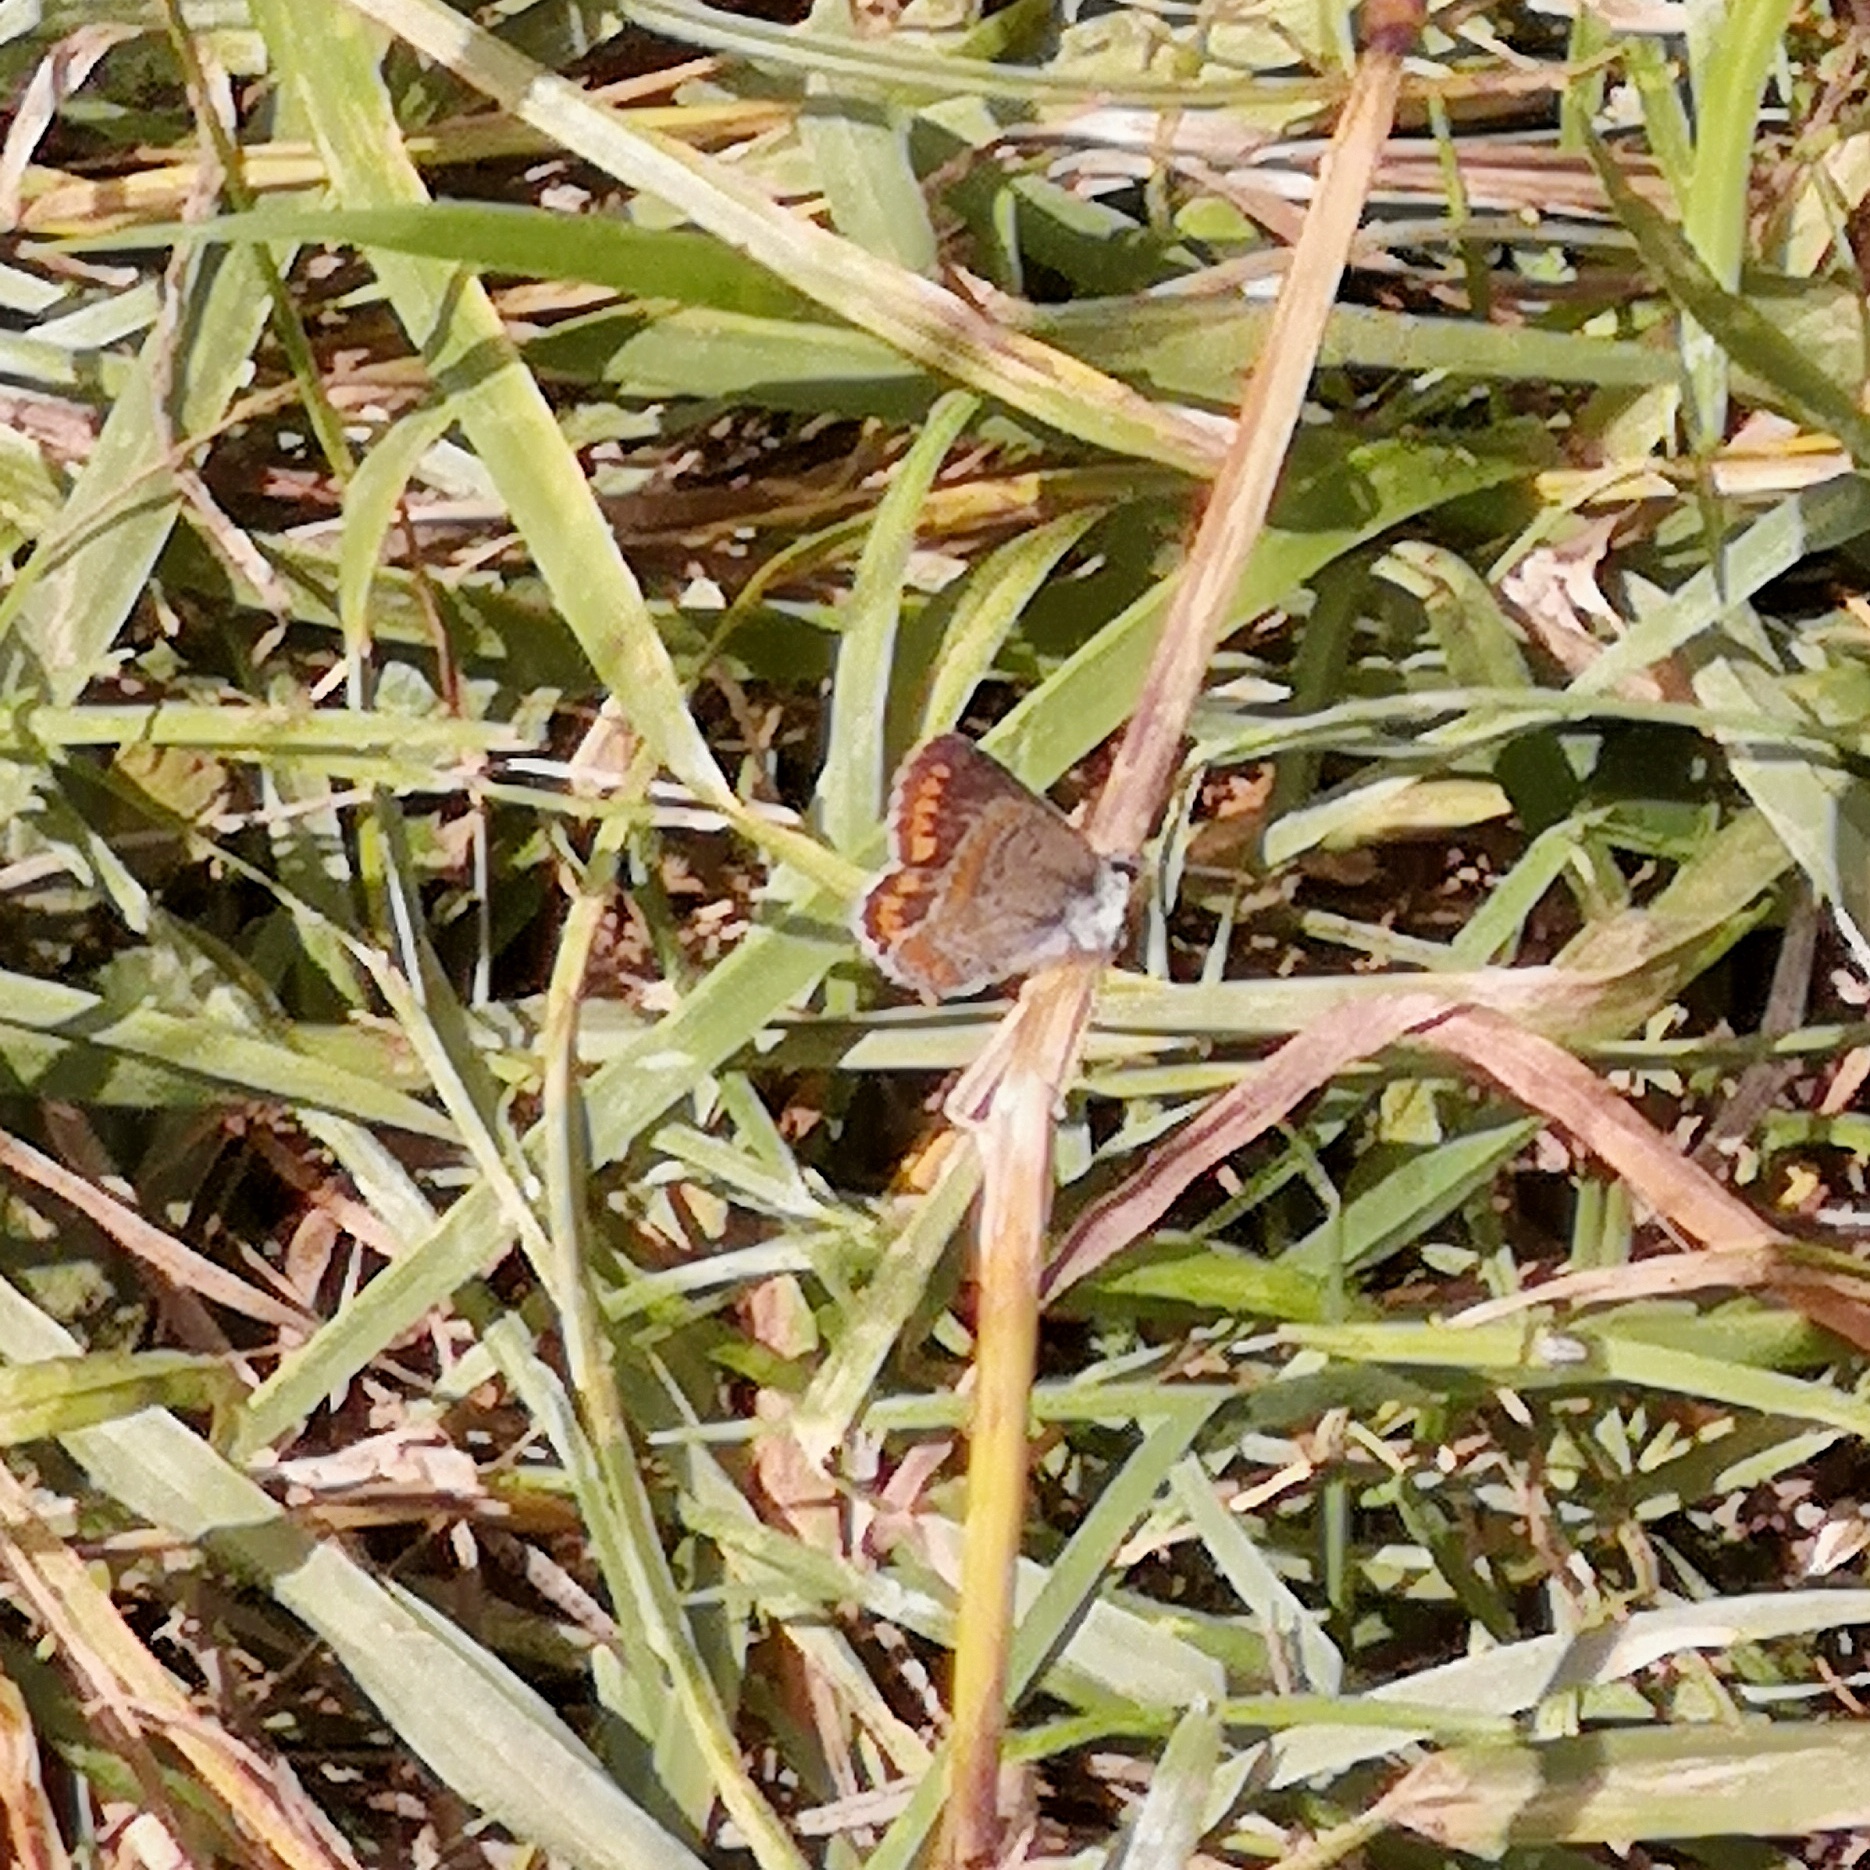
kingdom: Animalia
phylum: Arthropoda
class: Insecta
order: Lepidoptera
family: Lycaenidae
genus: Aricia
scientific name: Aricia agestis
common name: Brown argus
